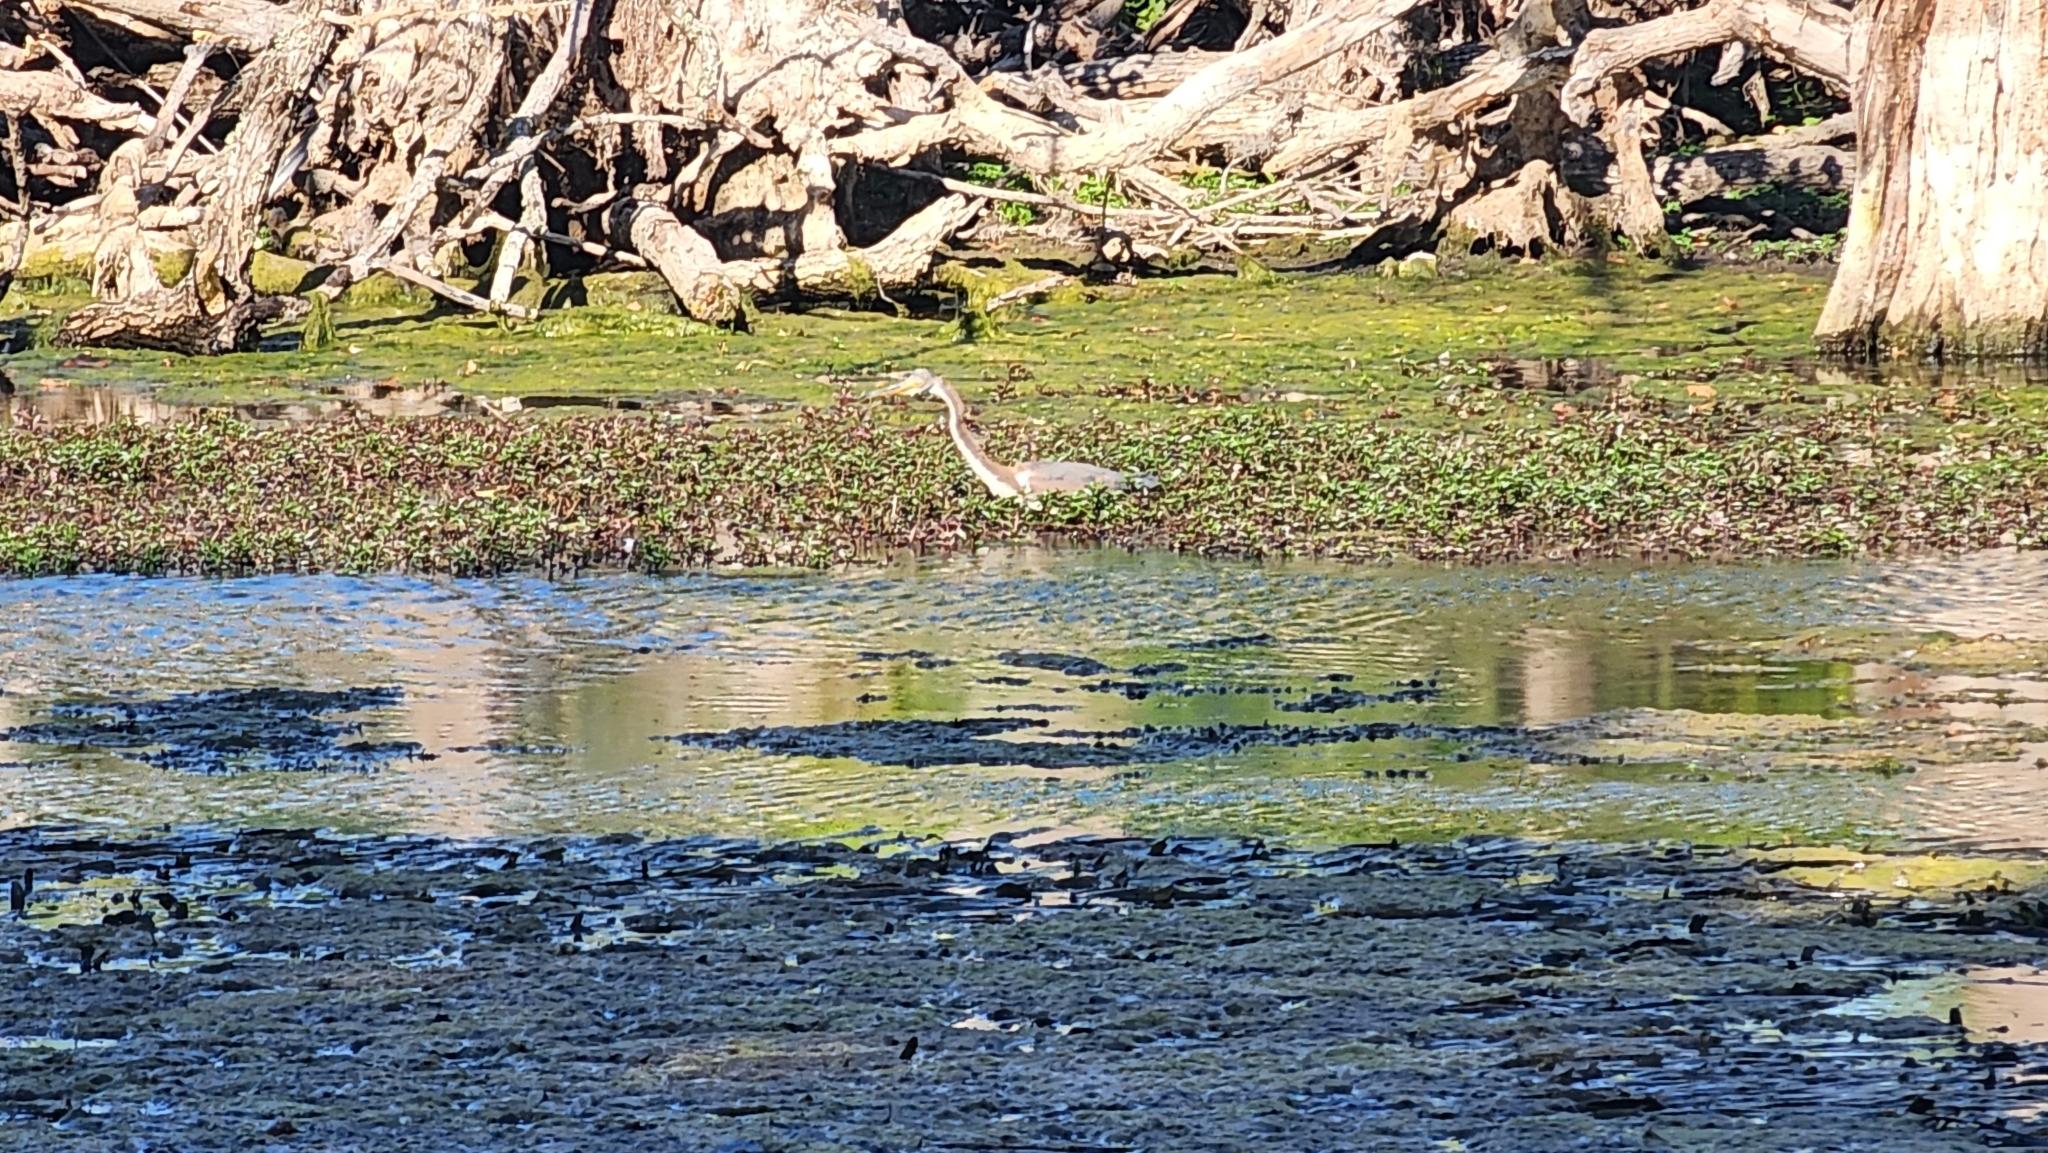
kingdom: Animalia
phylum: Chordata
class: Aves
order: Pelecaniformes
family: Ardeidae
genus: Egretta
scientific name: Egretta tricolor
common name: Tricolored heron
